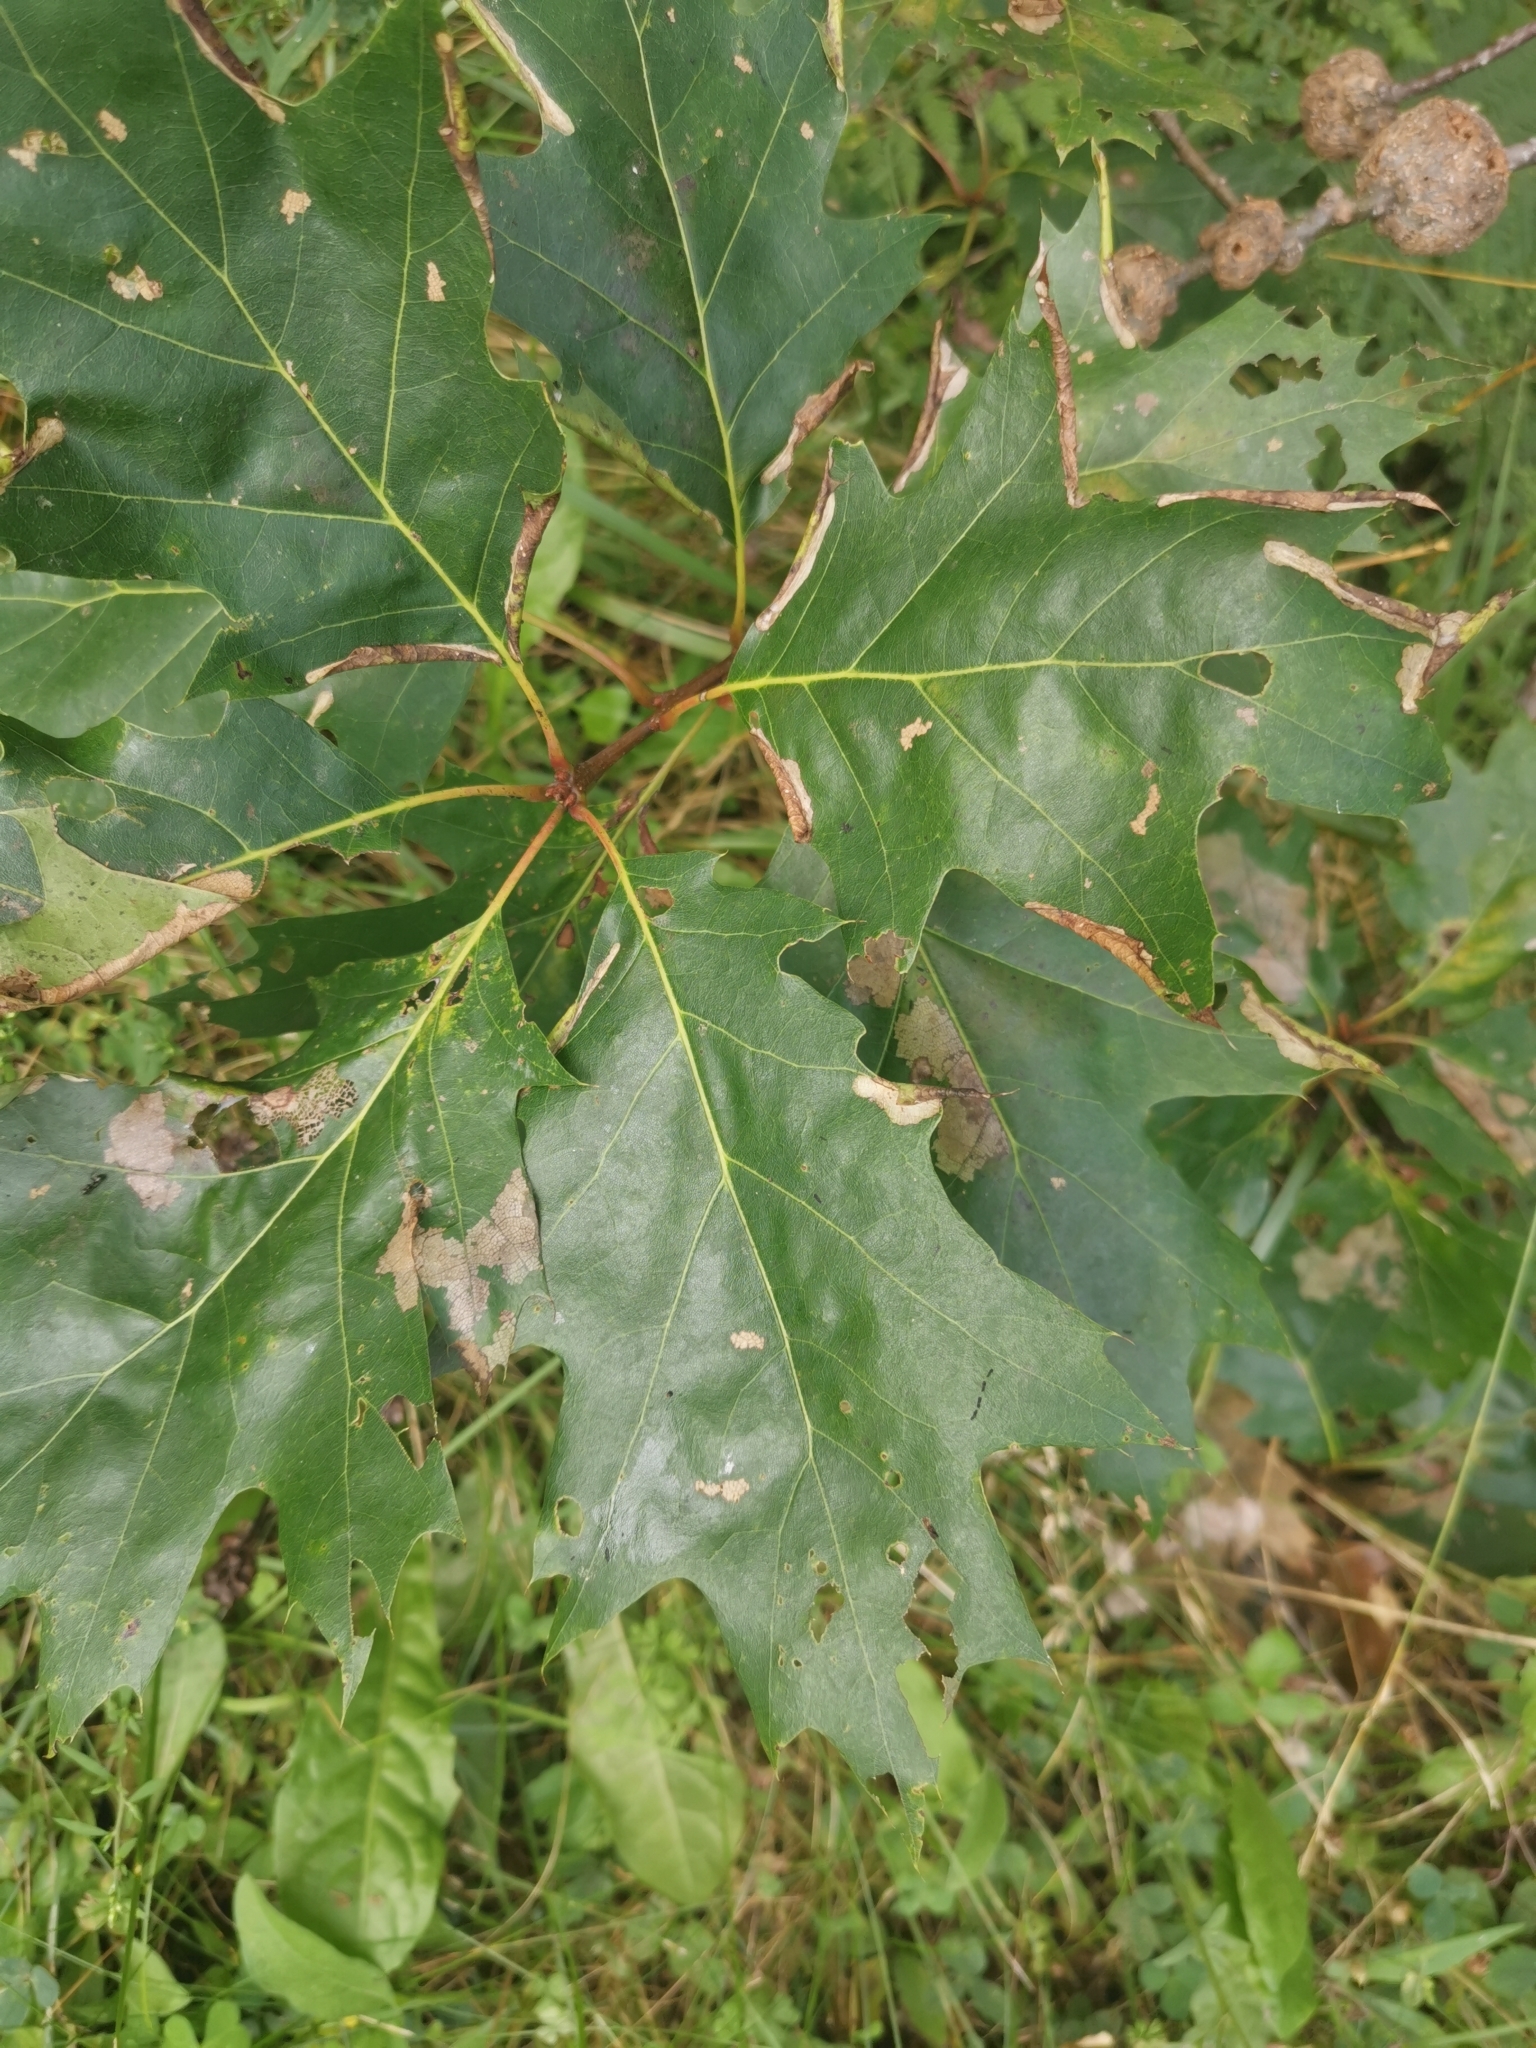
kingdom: Plantae
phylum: Tracheophyta
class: Magnoliopsida
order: Fagales
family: Fagaceae
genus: Quercus
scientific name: Quercus rubra
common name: Red oak
